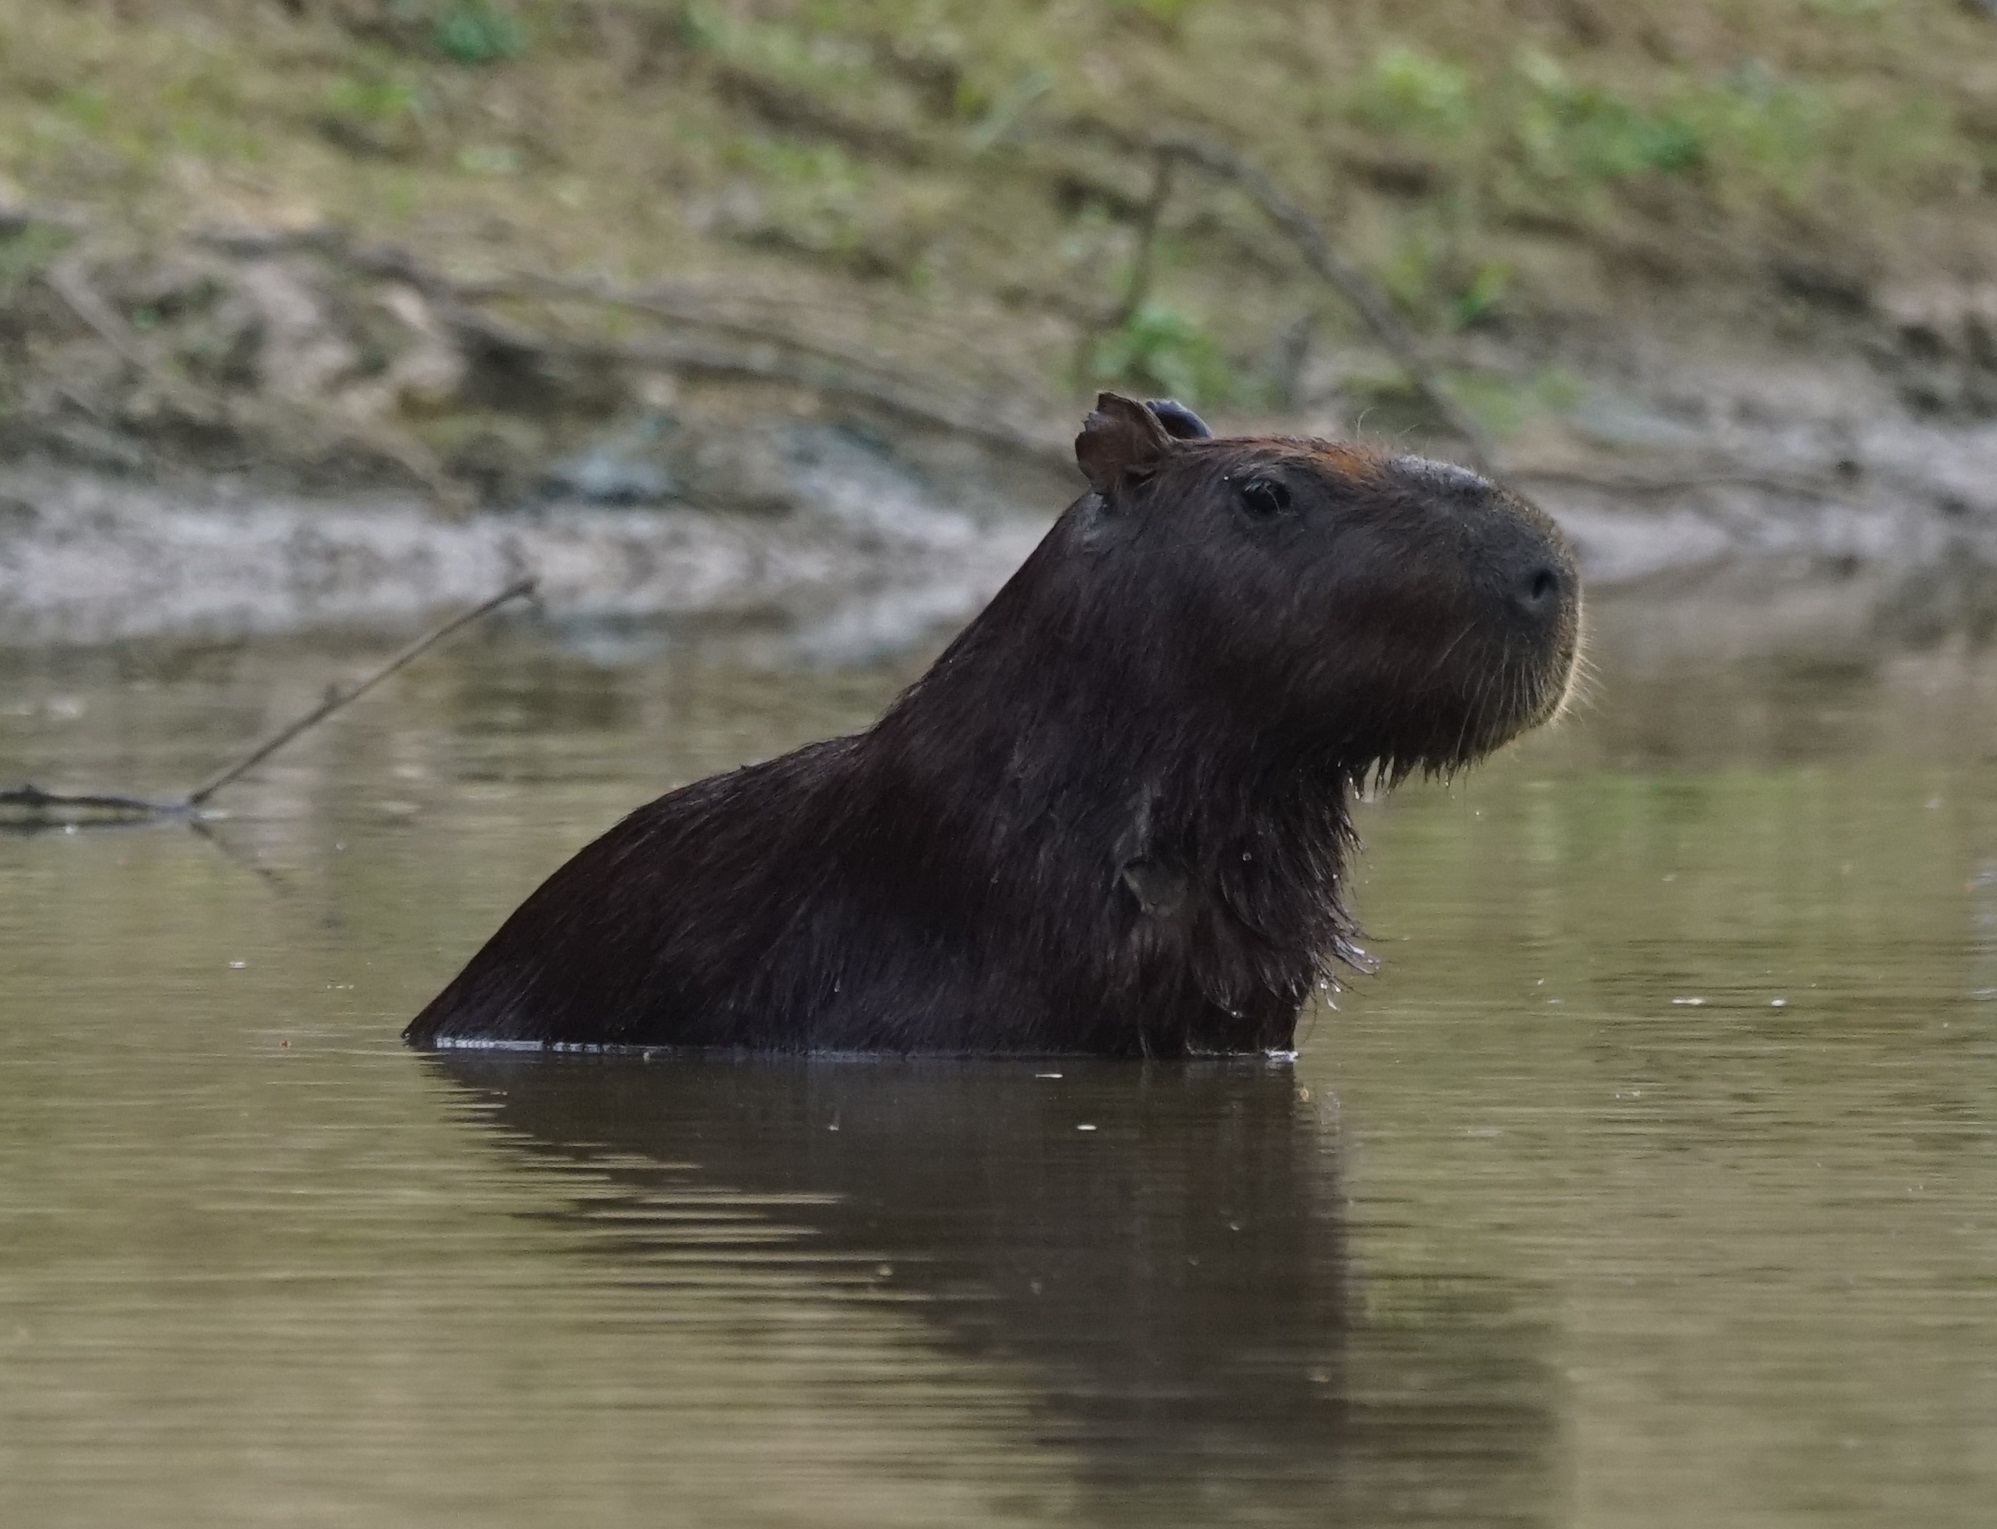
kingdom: Animalia
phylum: Chordata
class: Mammalia
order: Rodentia
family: Caviidae
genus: Hydrochoerus
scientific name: Hydrochoerus hydrochaeris
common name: Capybara
